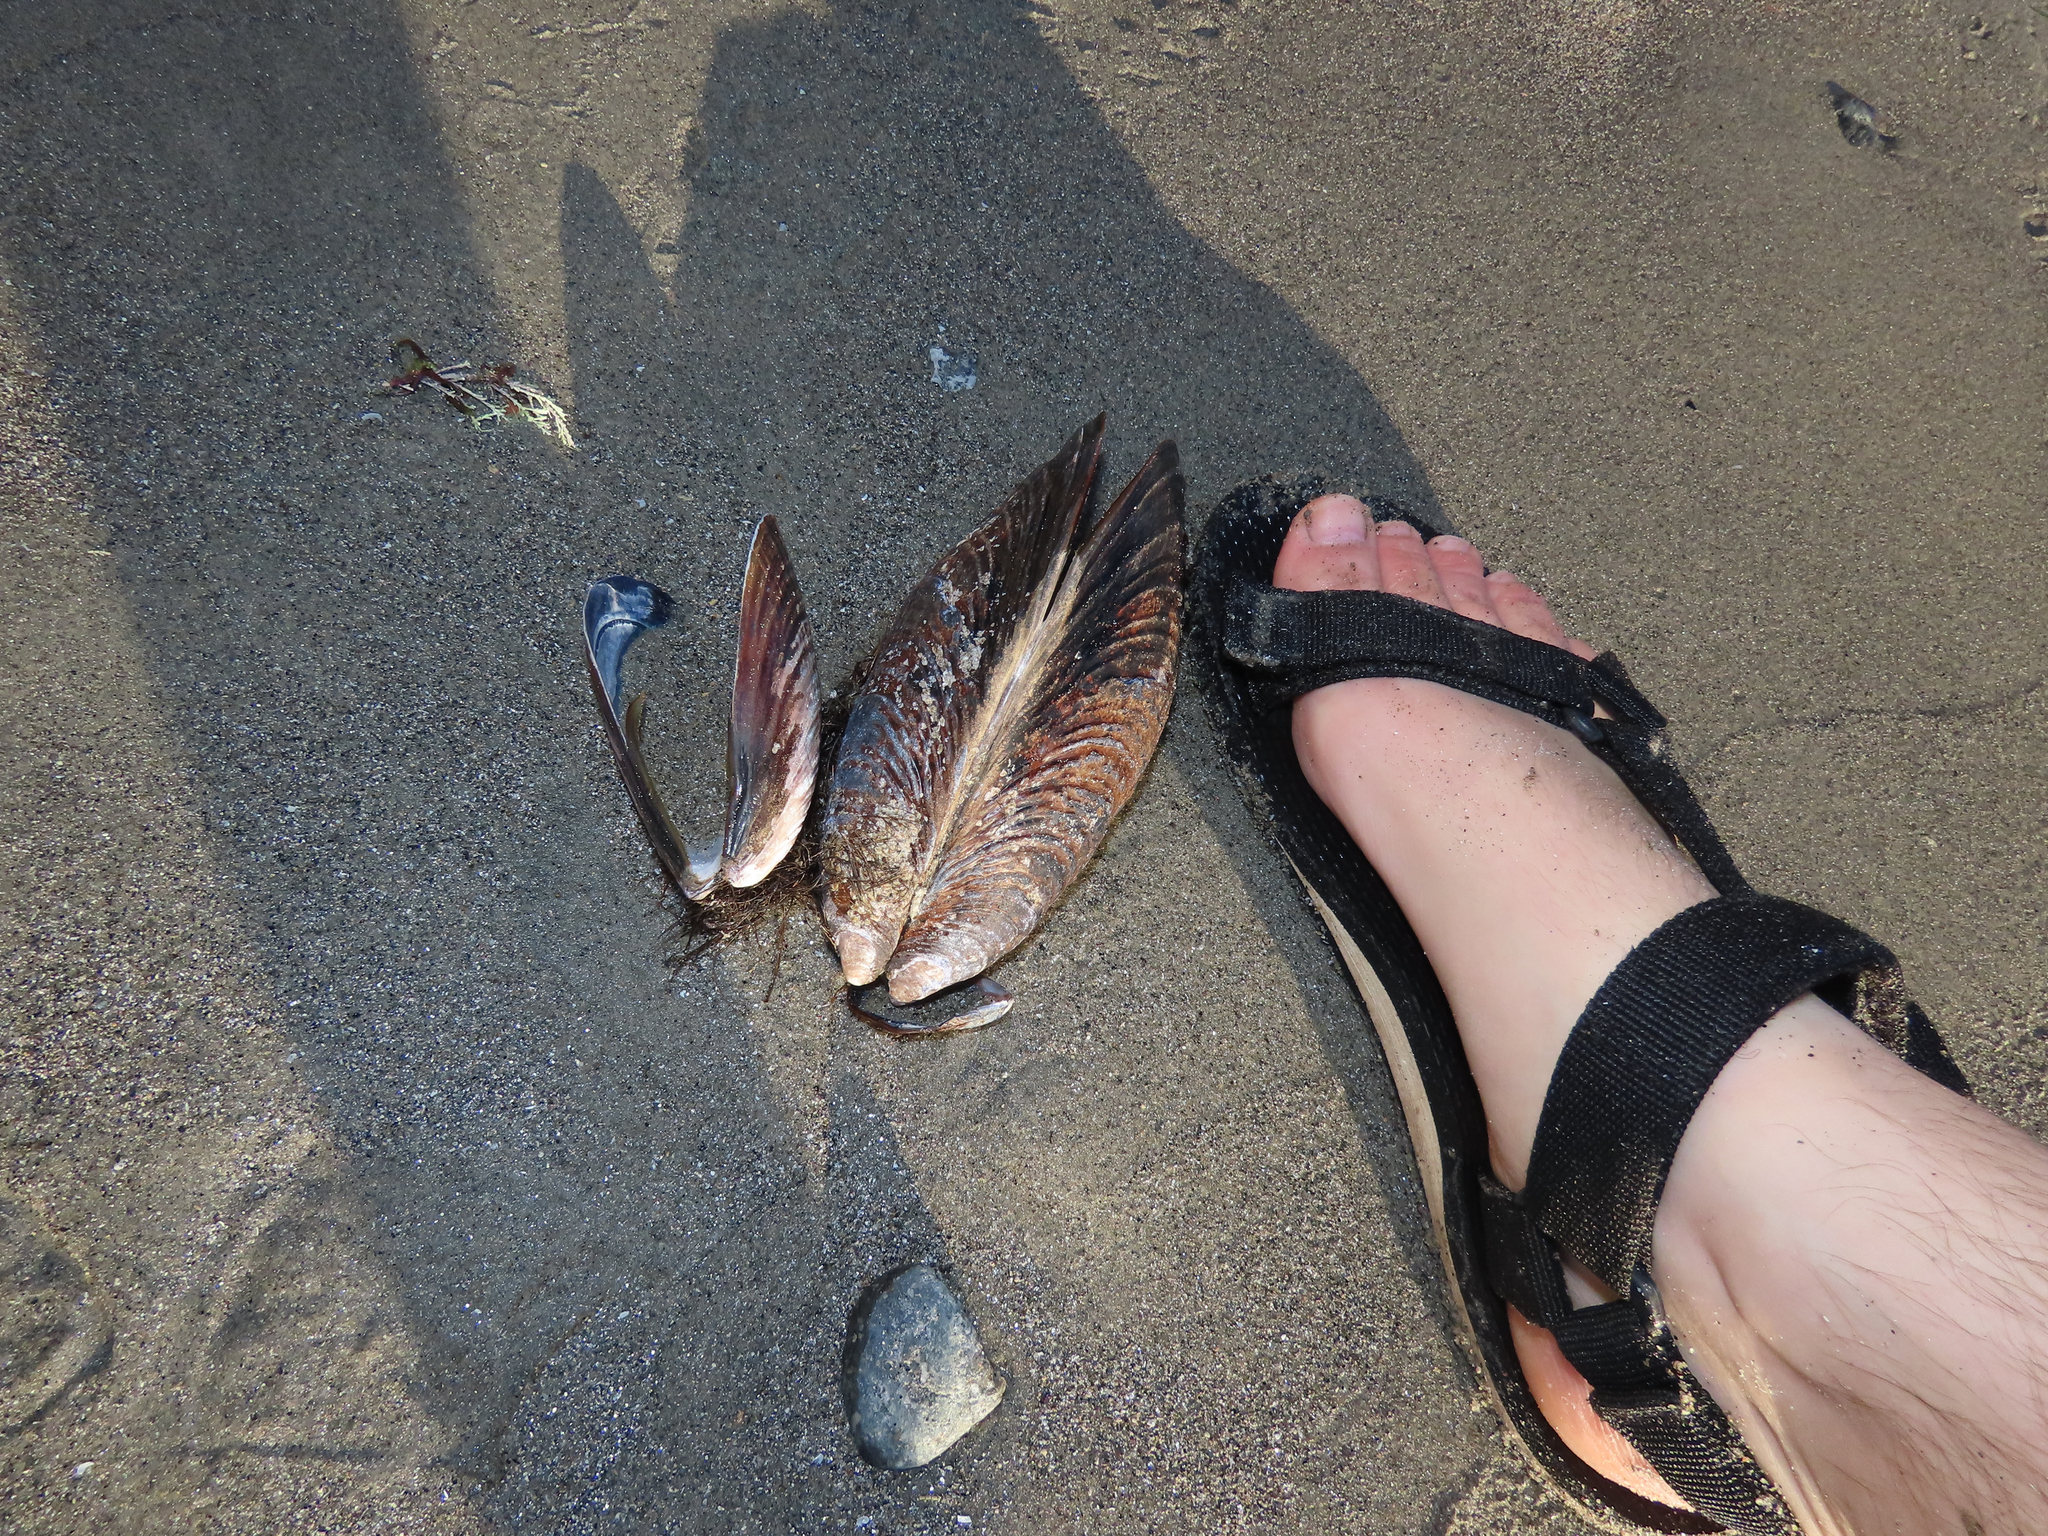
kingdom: Animalia
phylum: Mollusca
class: Bivalvia
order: Mytilida
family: Mytilidae
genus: Mytilus
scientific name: Mytilus californianus
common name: California mussel
